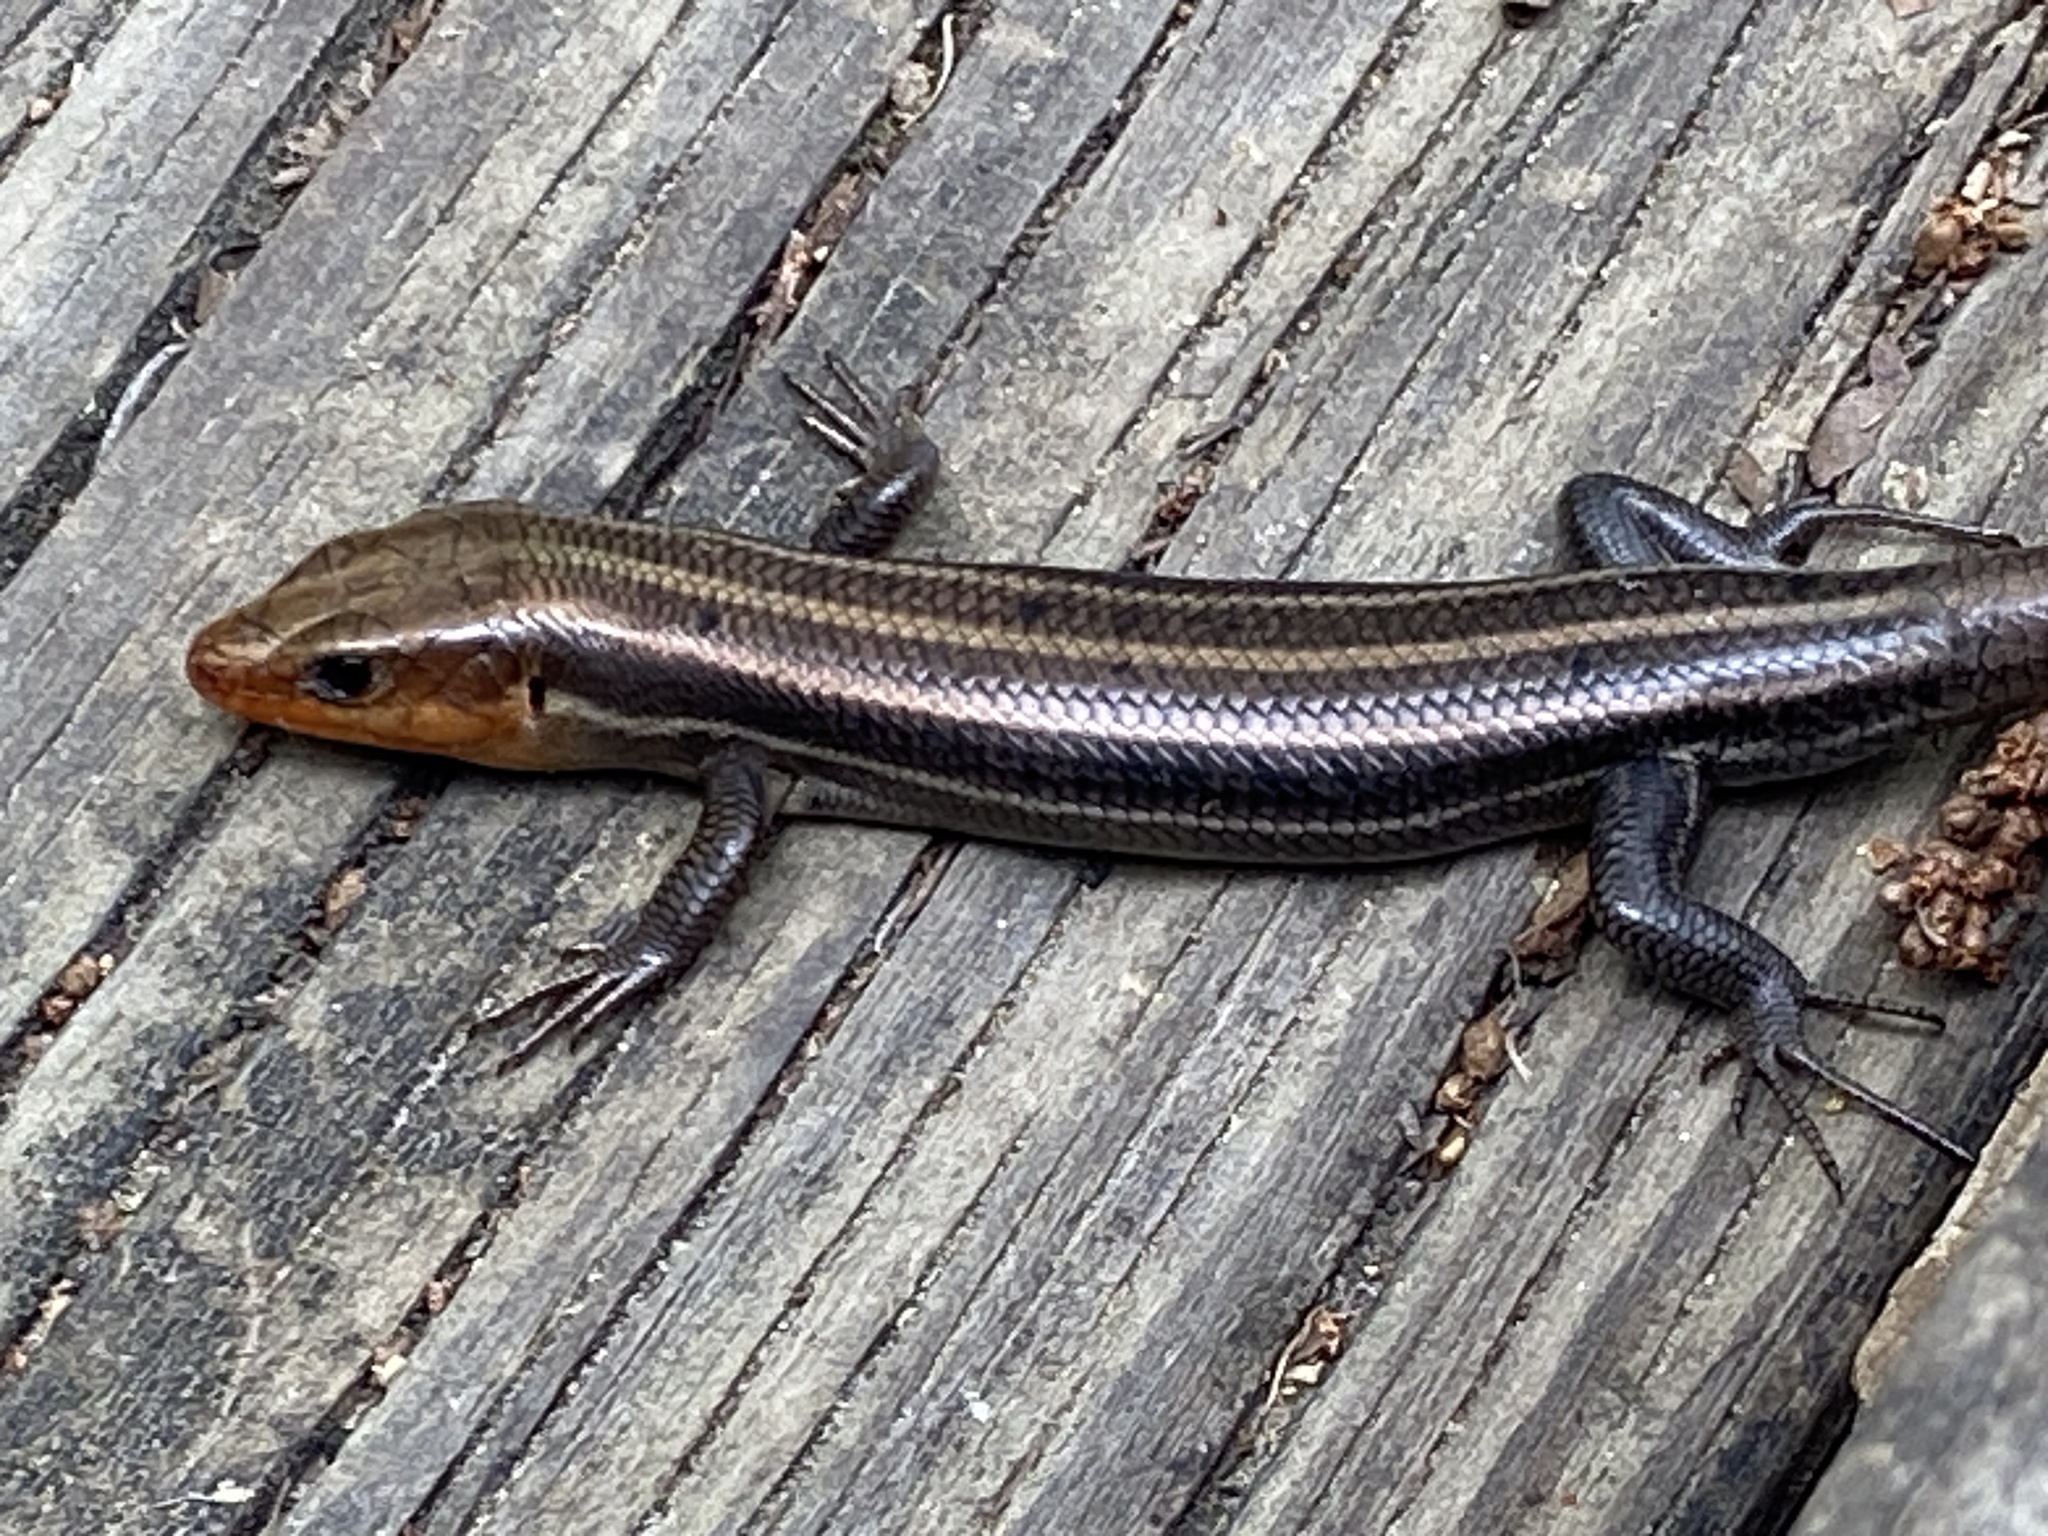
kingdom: Animalia
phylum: Chordata
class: Squamata
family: Scincidae
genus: Plestiodon
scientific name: Plestiodon fasciatus
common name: Five-lined skink
